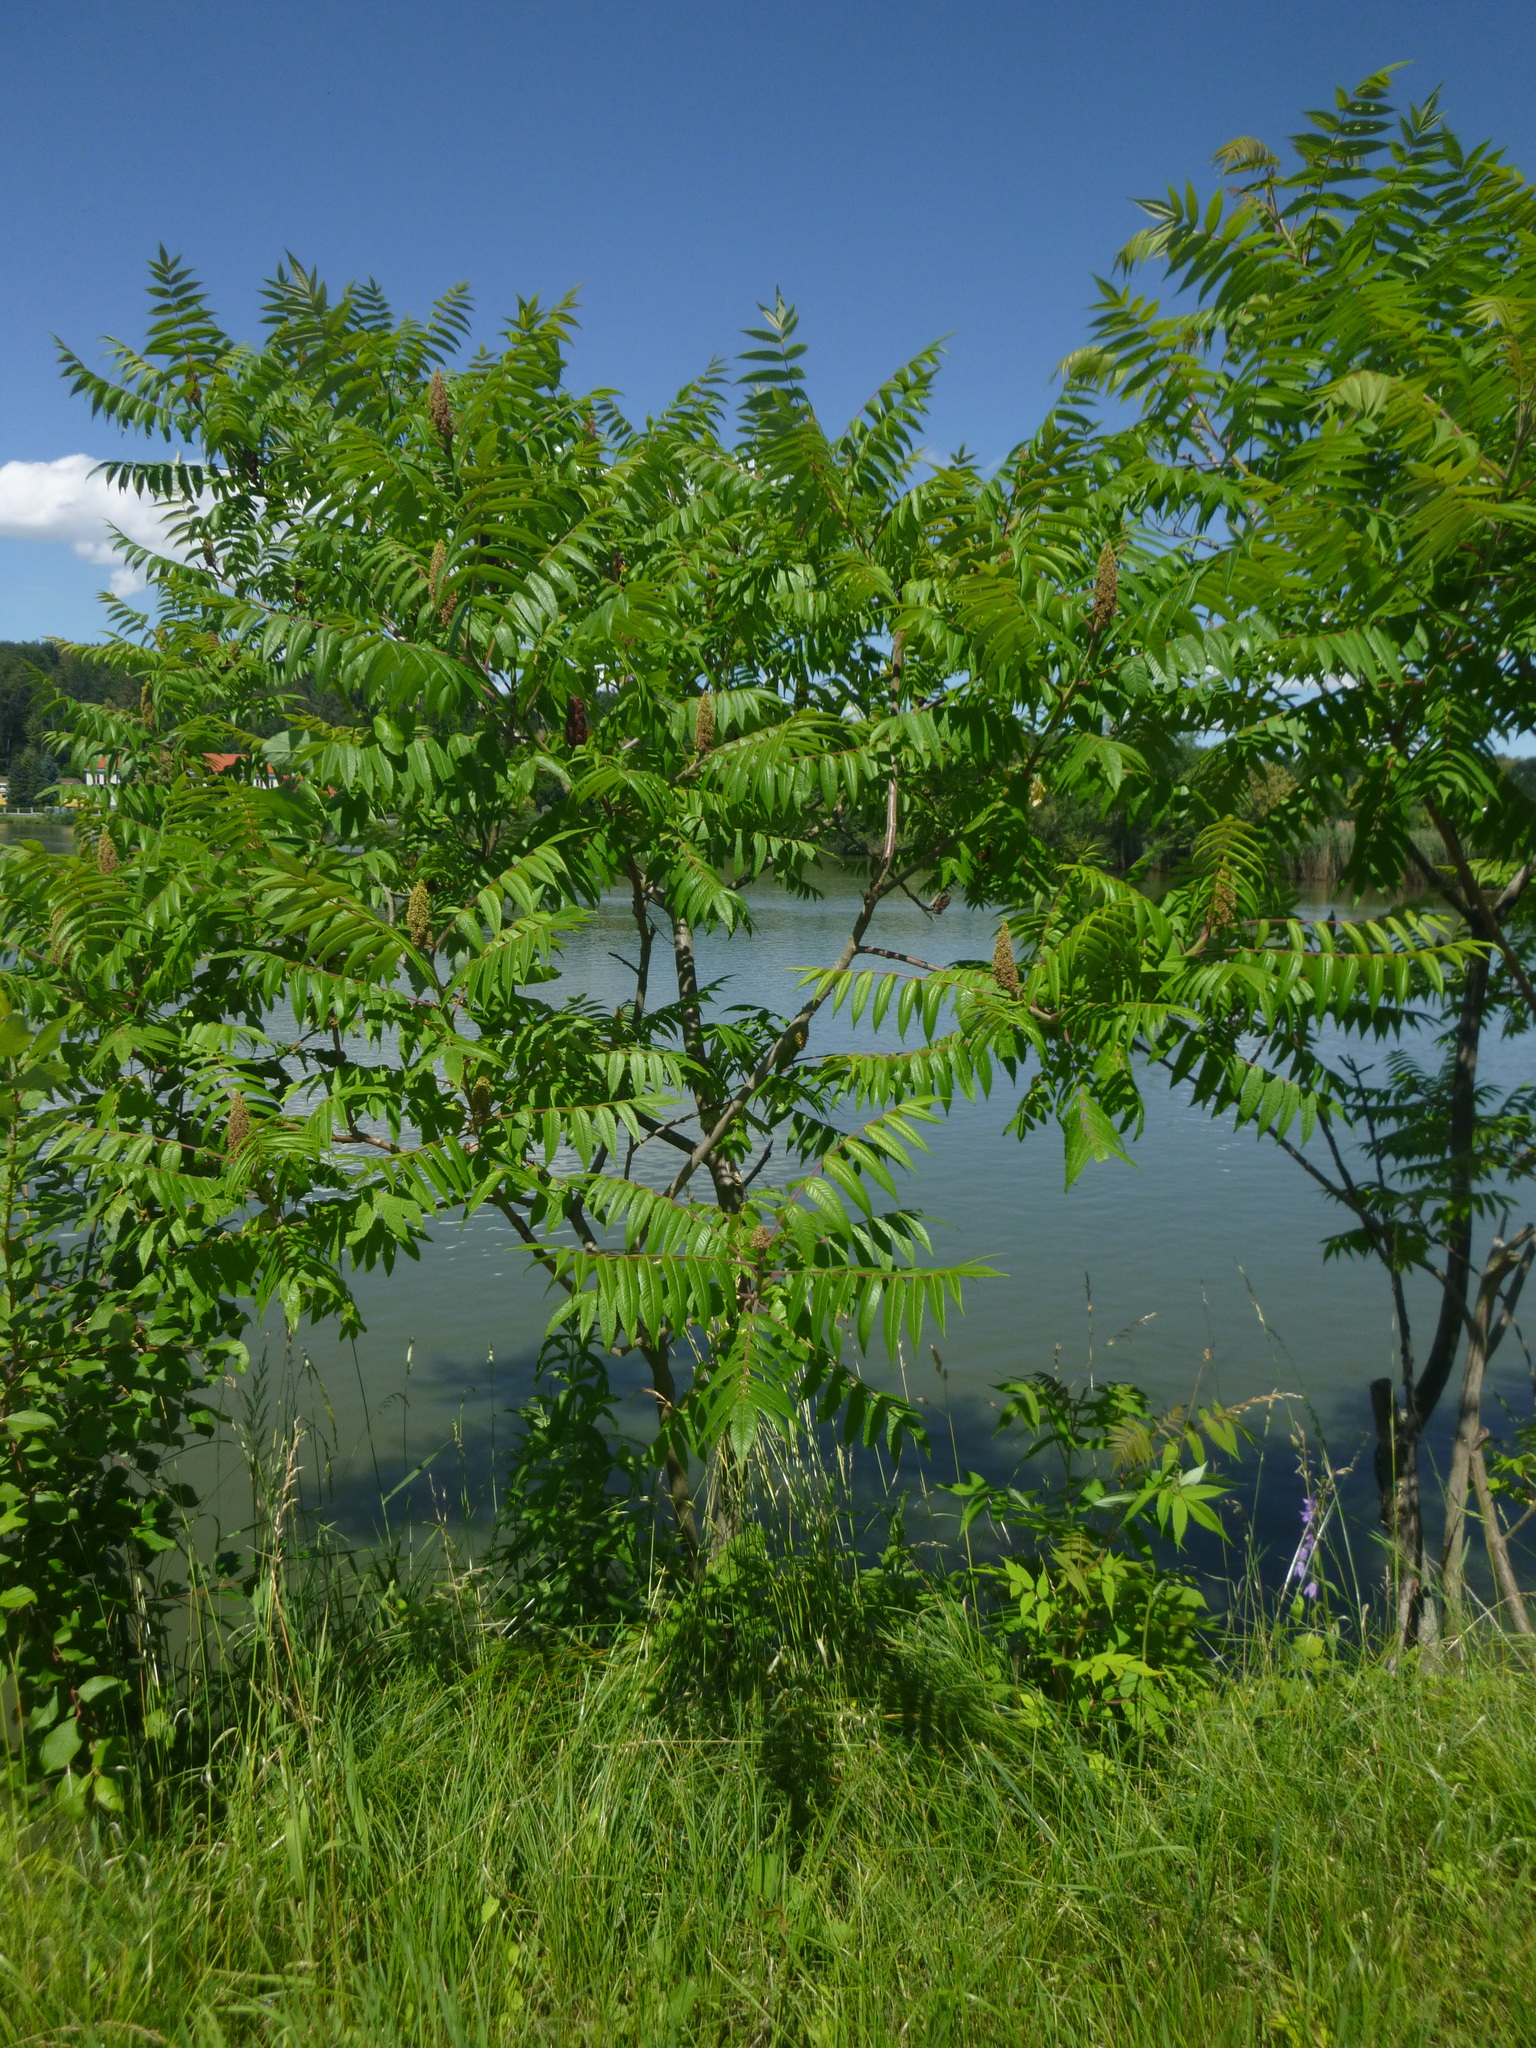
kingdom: Plantae
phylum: Tracheophyta
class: Magnoliopsida
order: Sapindales
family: Anacardiaceae
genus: Rhus
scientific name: Rhus typhina
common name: Staghorn sumac
